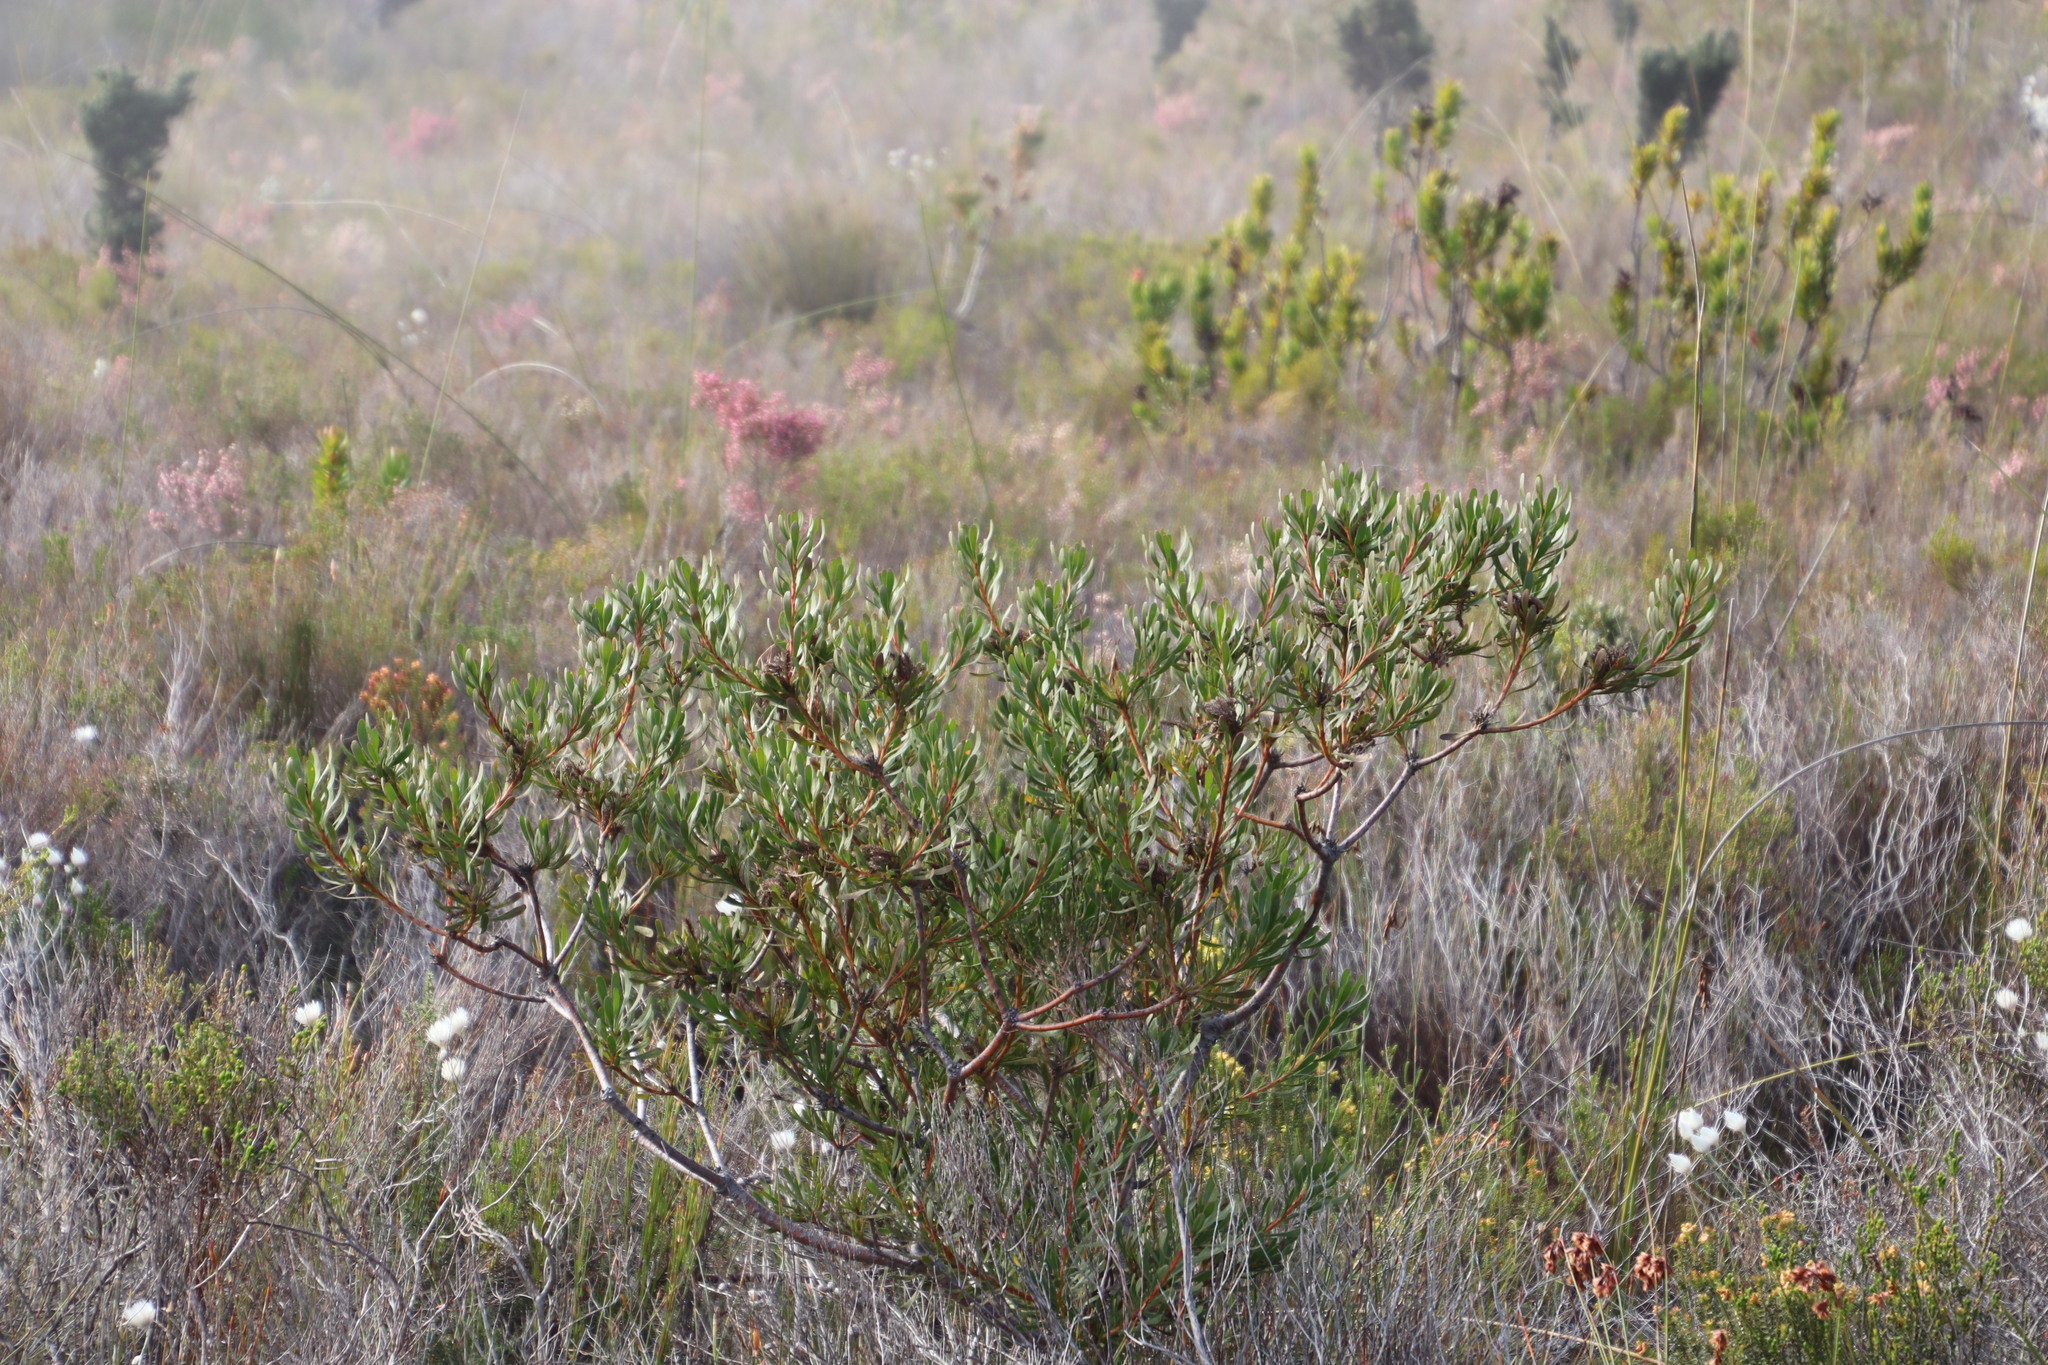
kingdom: Plantae
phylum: Tracheophyta
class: Magnoliopsida
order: Proteales
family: Proteaceae
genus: Aulax
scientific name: Aulax umbellata
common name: Broad-leaf featherbush
